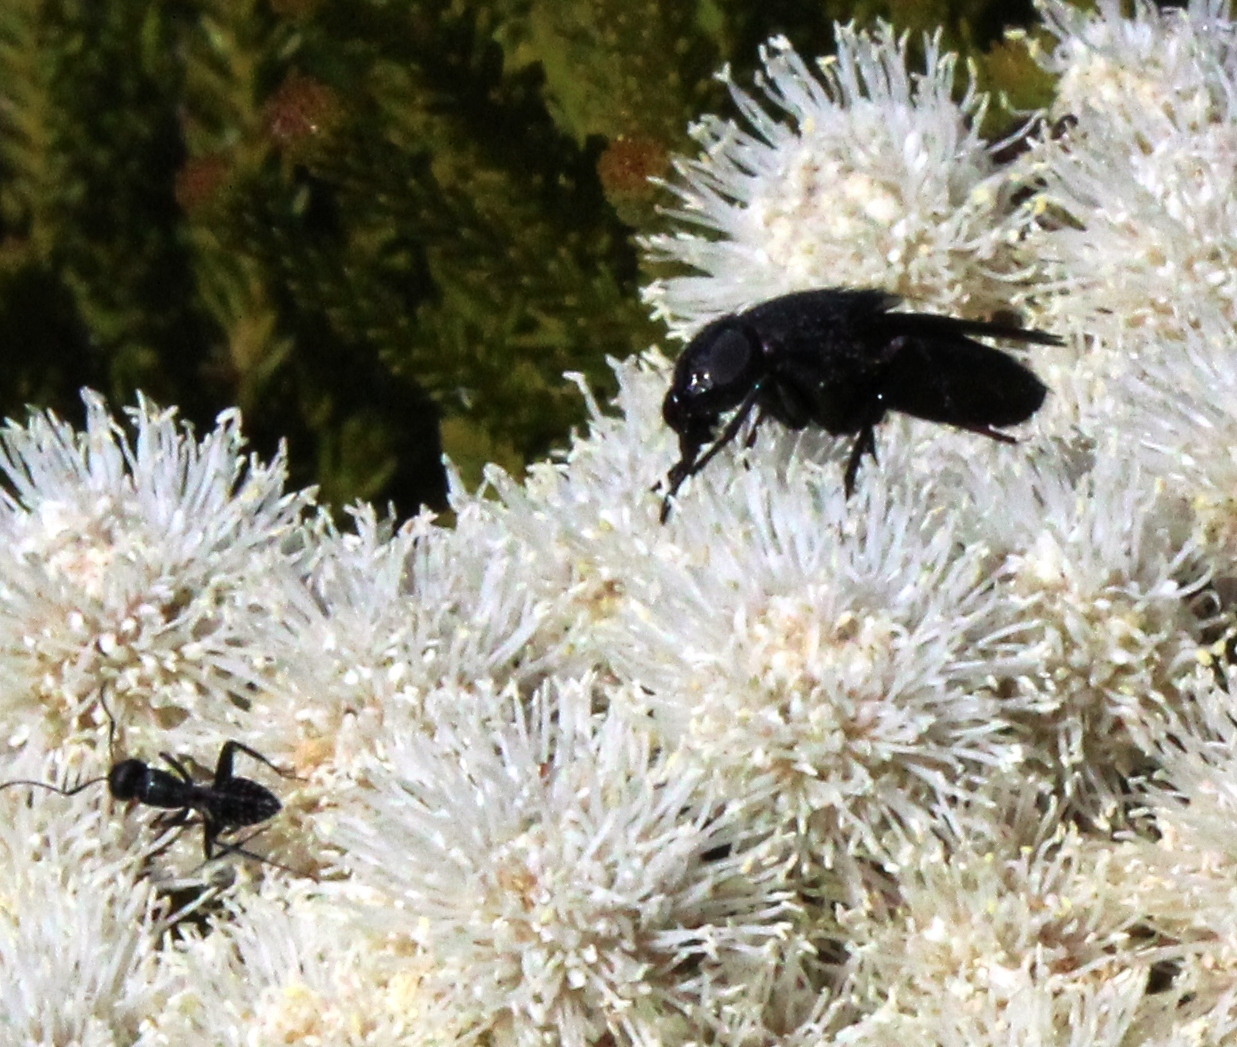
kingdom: Animalia
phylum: Arthropoda
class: Insecta
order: Hymenoptera
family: Formicidae
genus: Camponotus
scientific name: Camponotus niveosetosus
